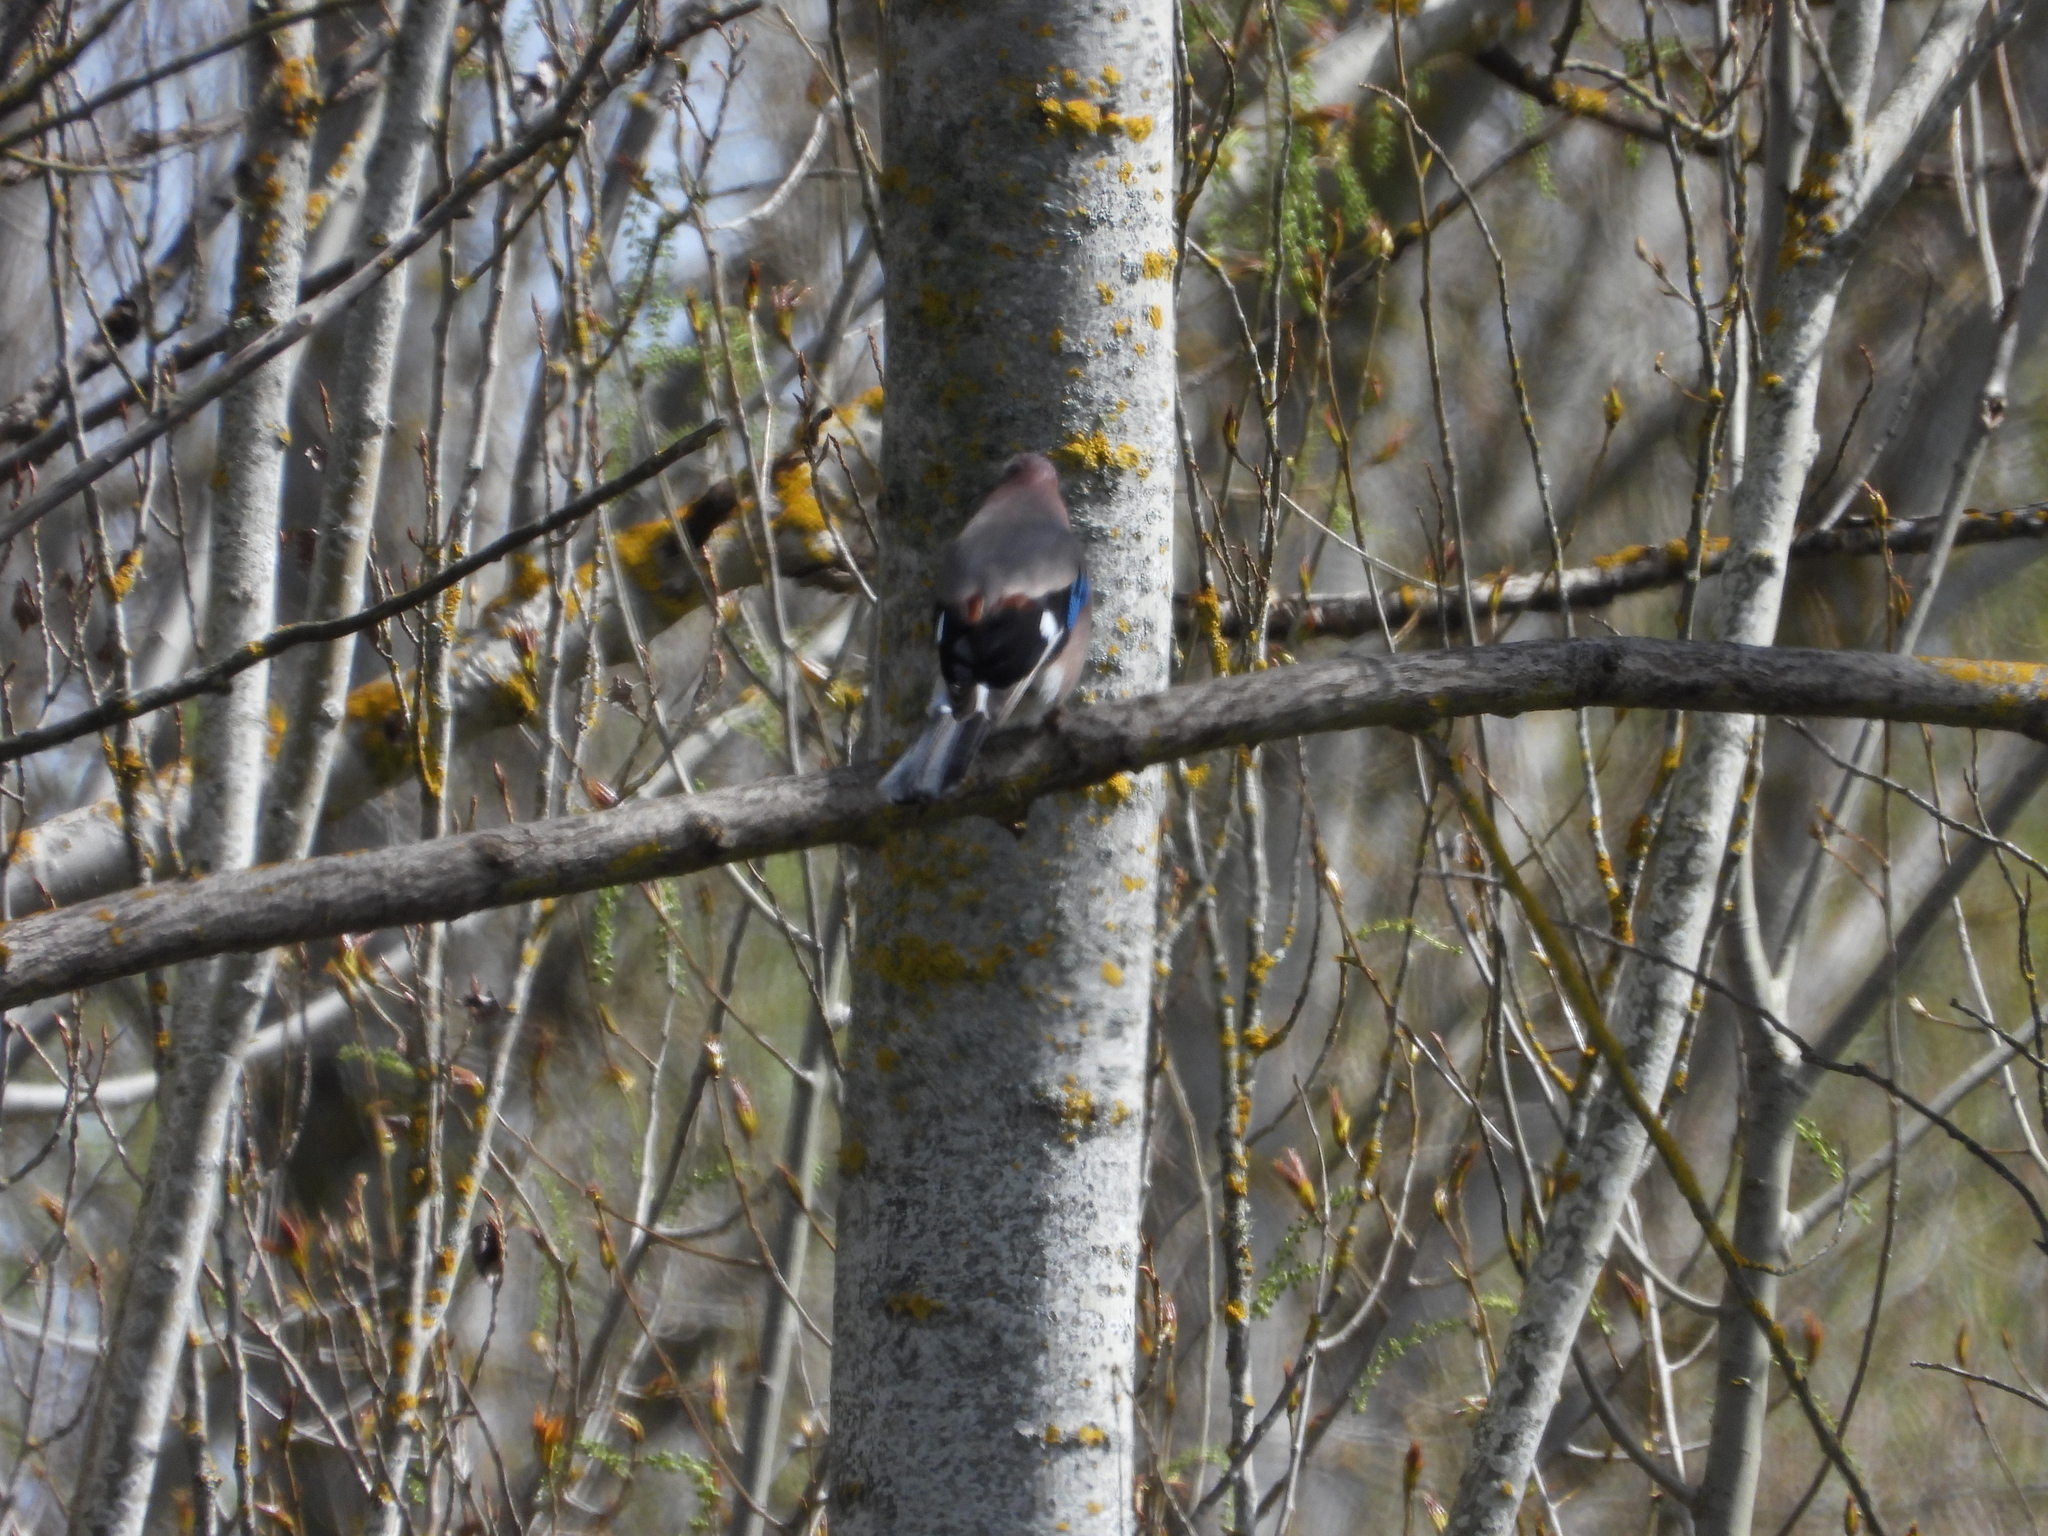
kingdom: Animalia
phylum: Chordata
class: Aves
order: Passeriformes
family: Corvidae
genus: Garrulus
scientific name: Garrulus glandarius
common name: Eurasian jay
